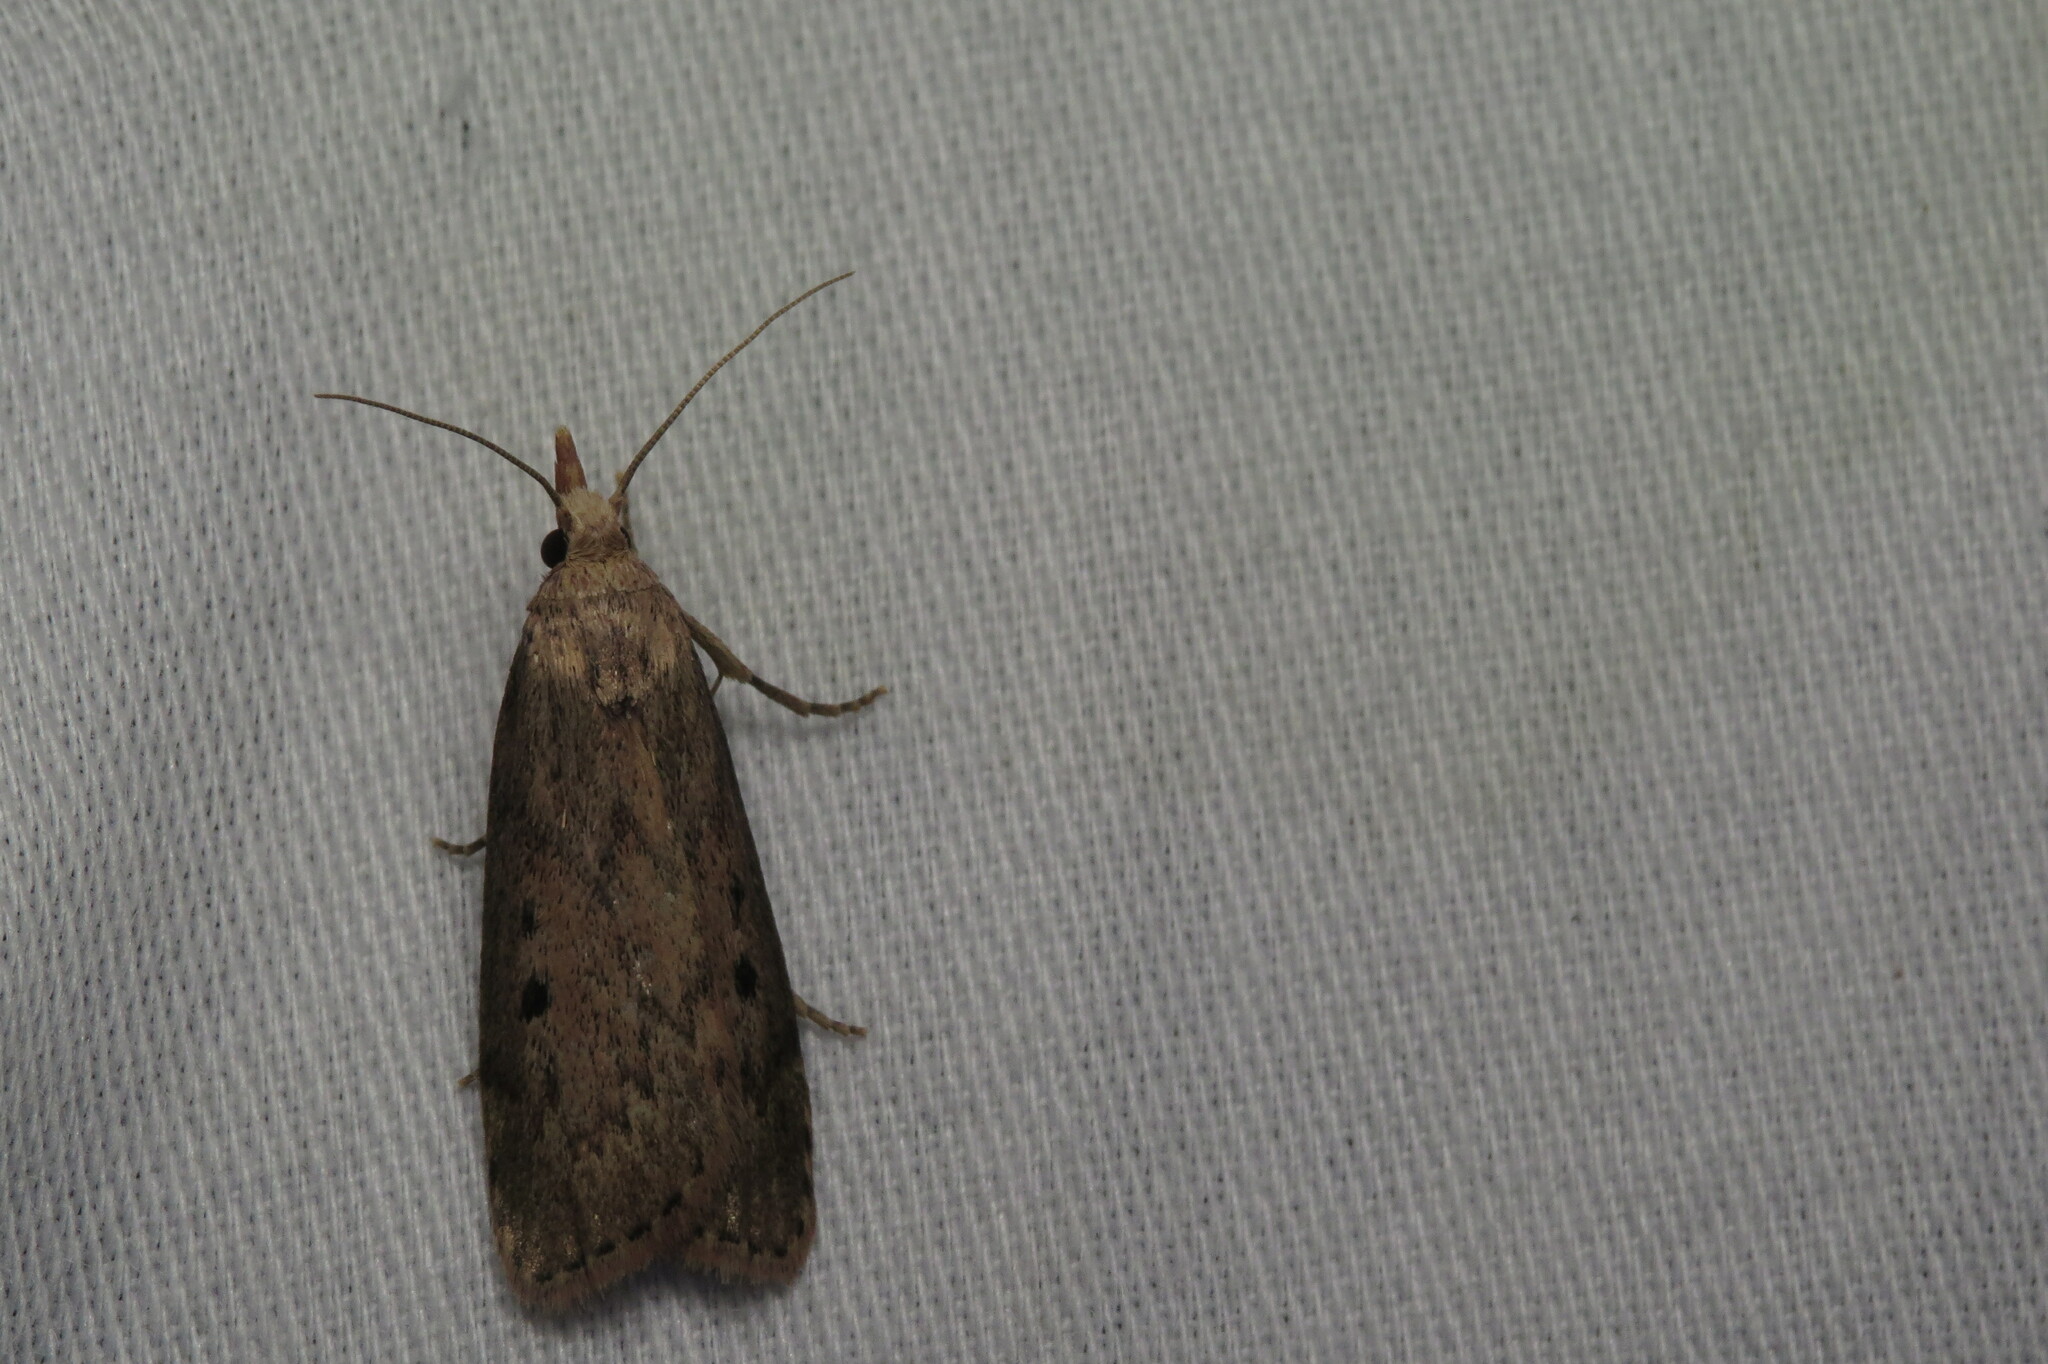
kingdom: Animalia
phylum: Arthropoda
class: Insecta
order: Lepidoptera
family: Pyralidae
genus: Aphomia
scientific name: Aphomia sociella
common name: Bee moth
